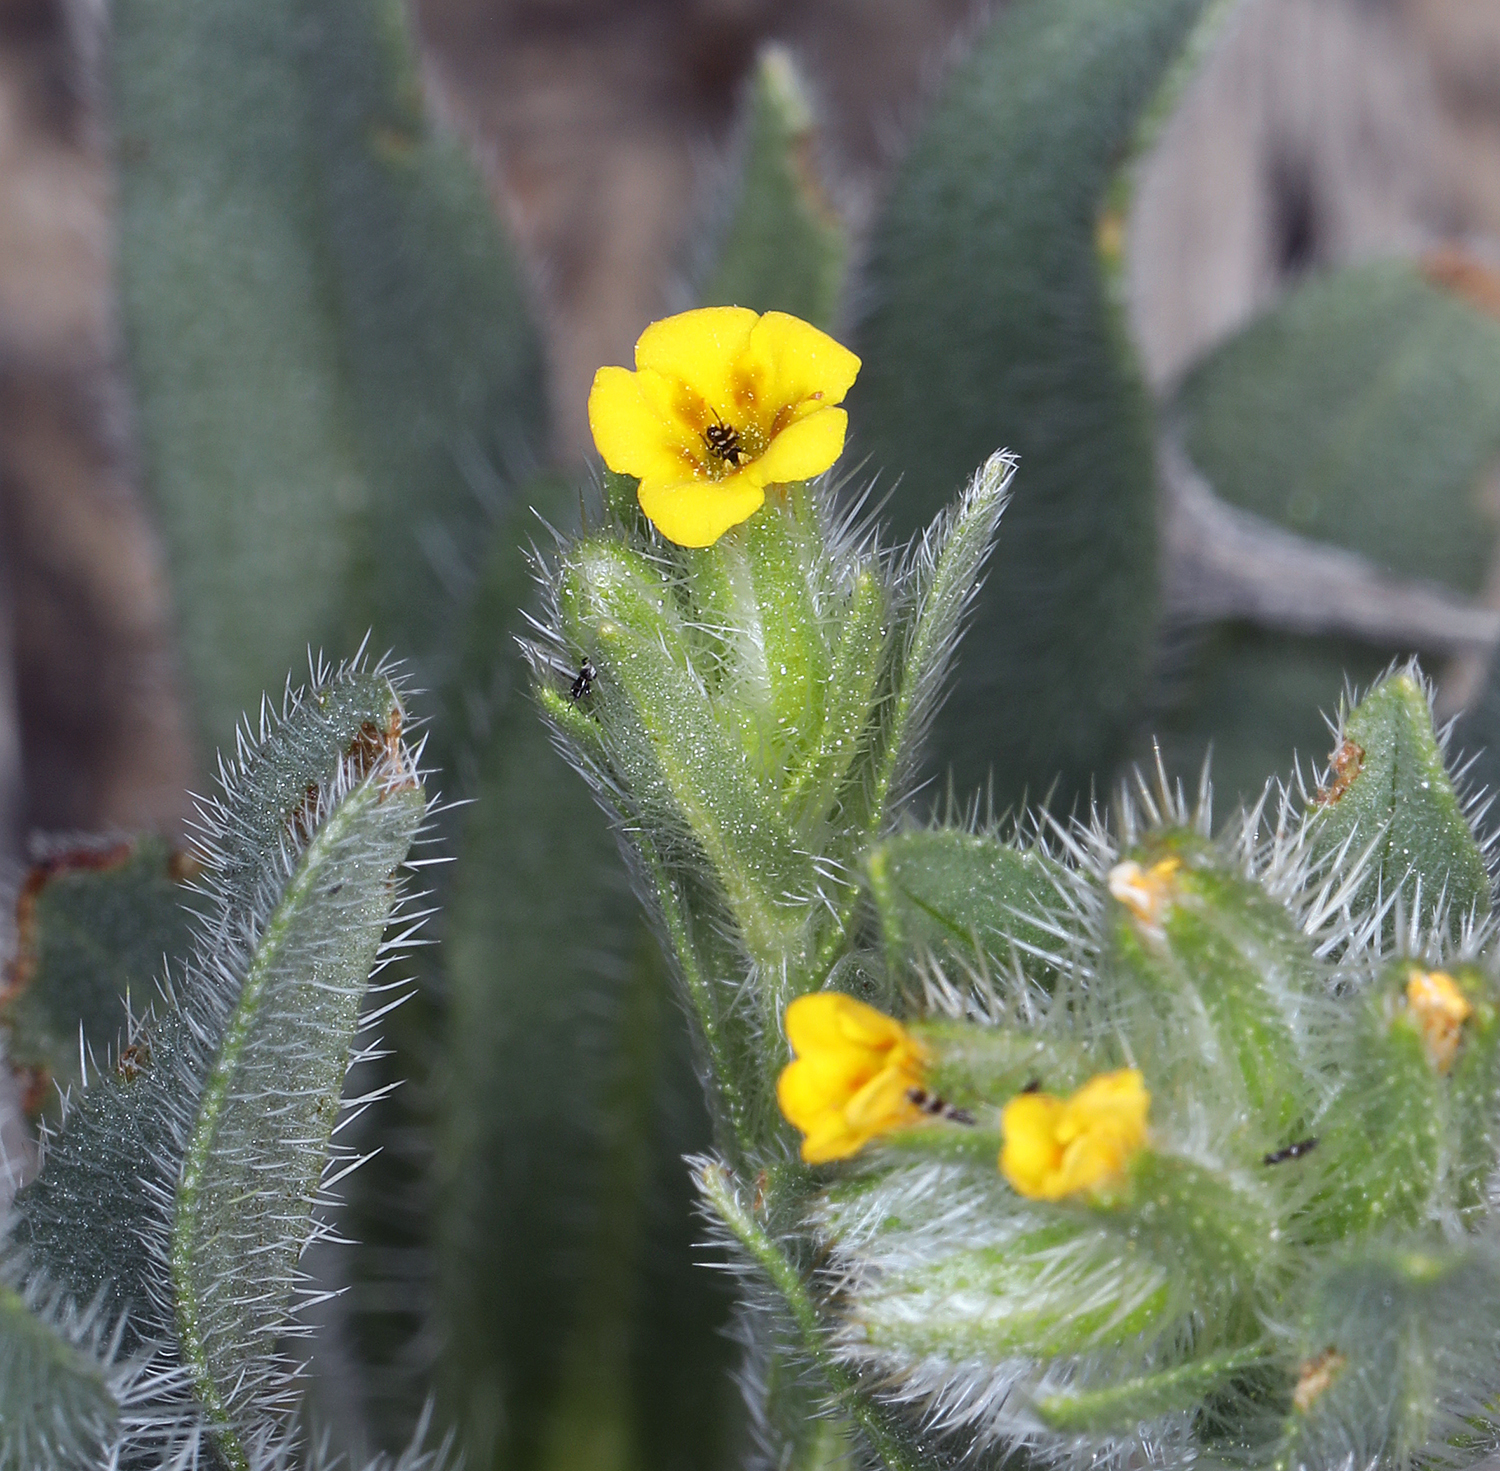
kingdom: Plantae
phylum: Tracheophyta
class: Magnoliopsida
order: Boraginales
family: Boraginaceae
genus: Amsinckia
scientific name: Amsinckia tessellata
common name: Tessellate fiddleneck
